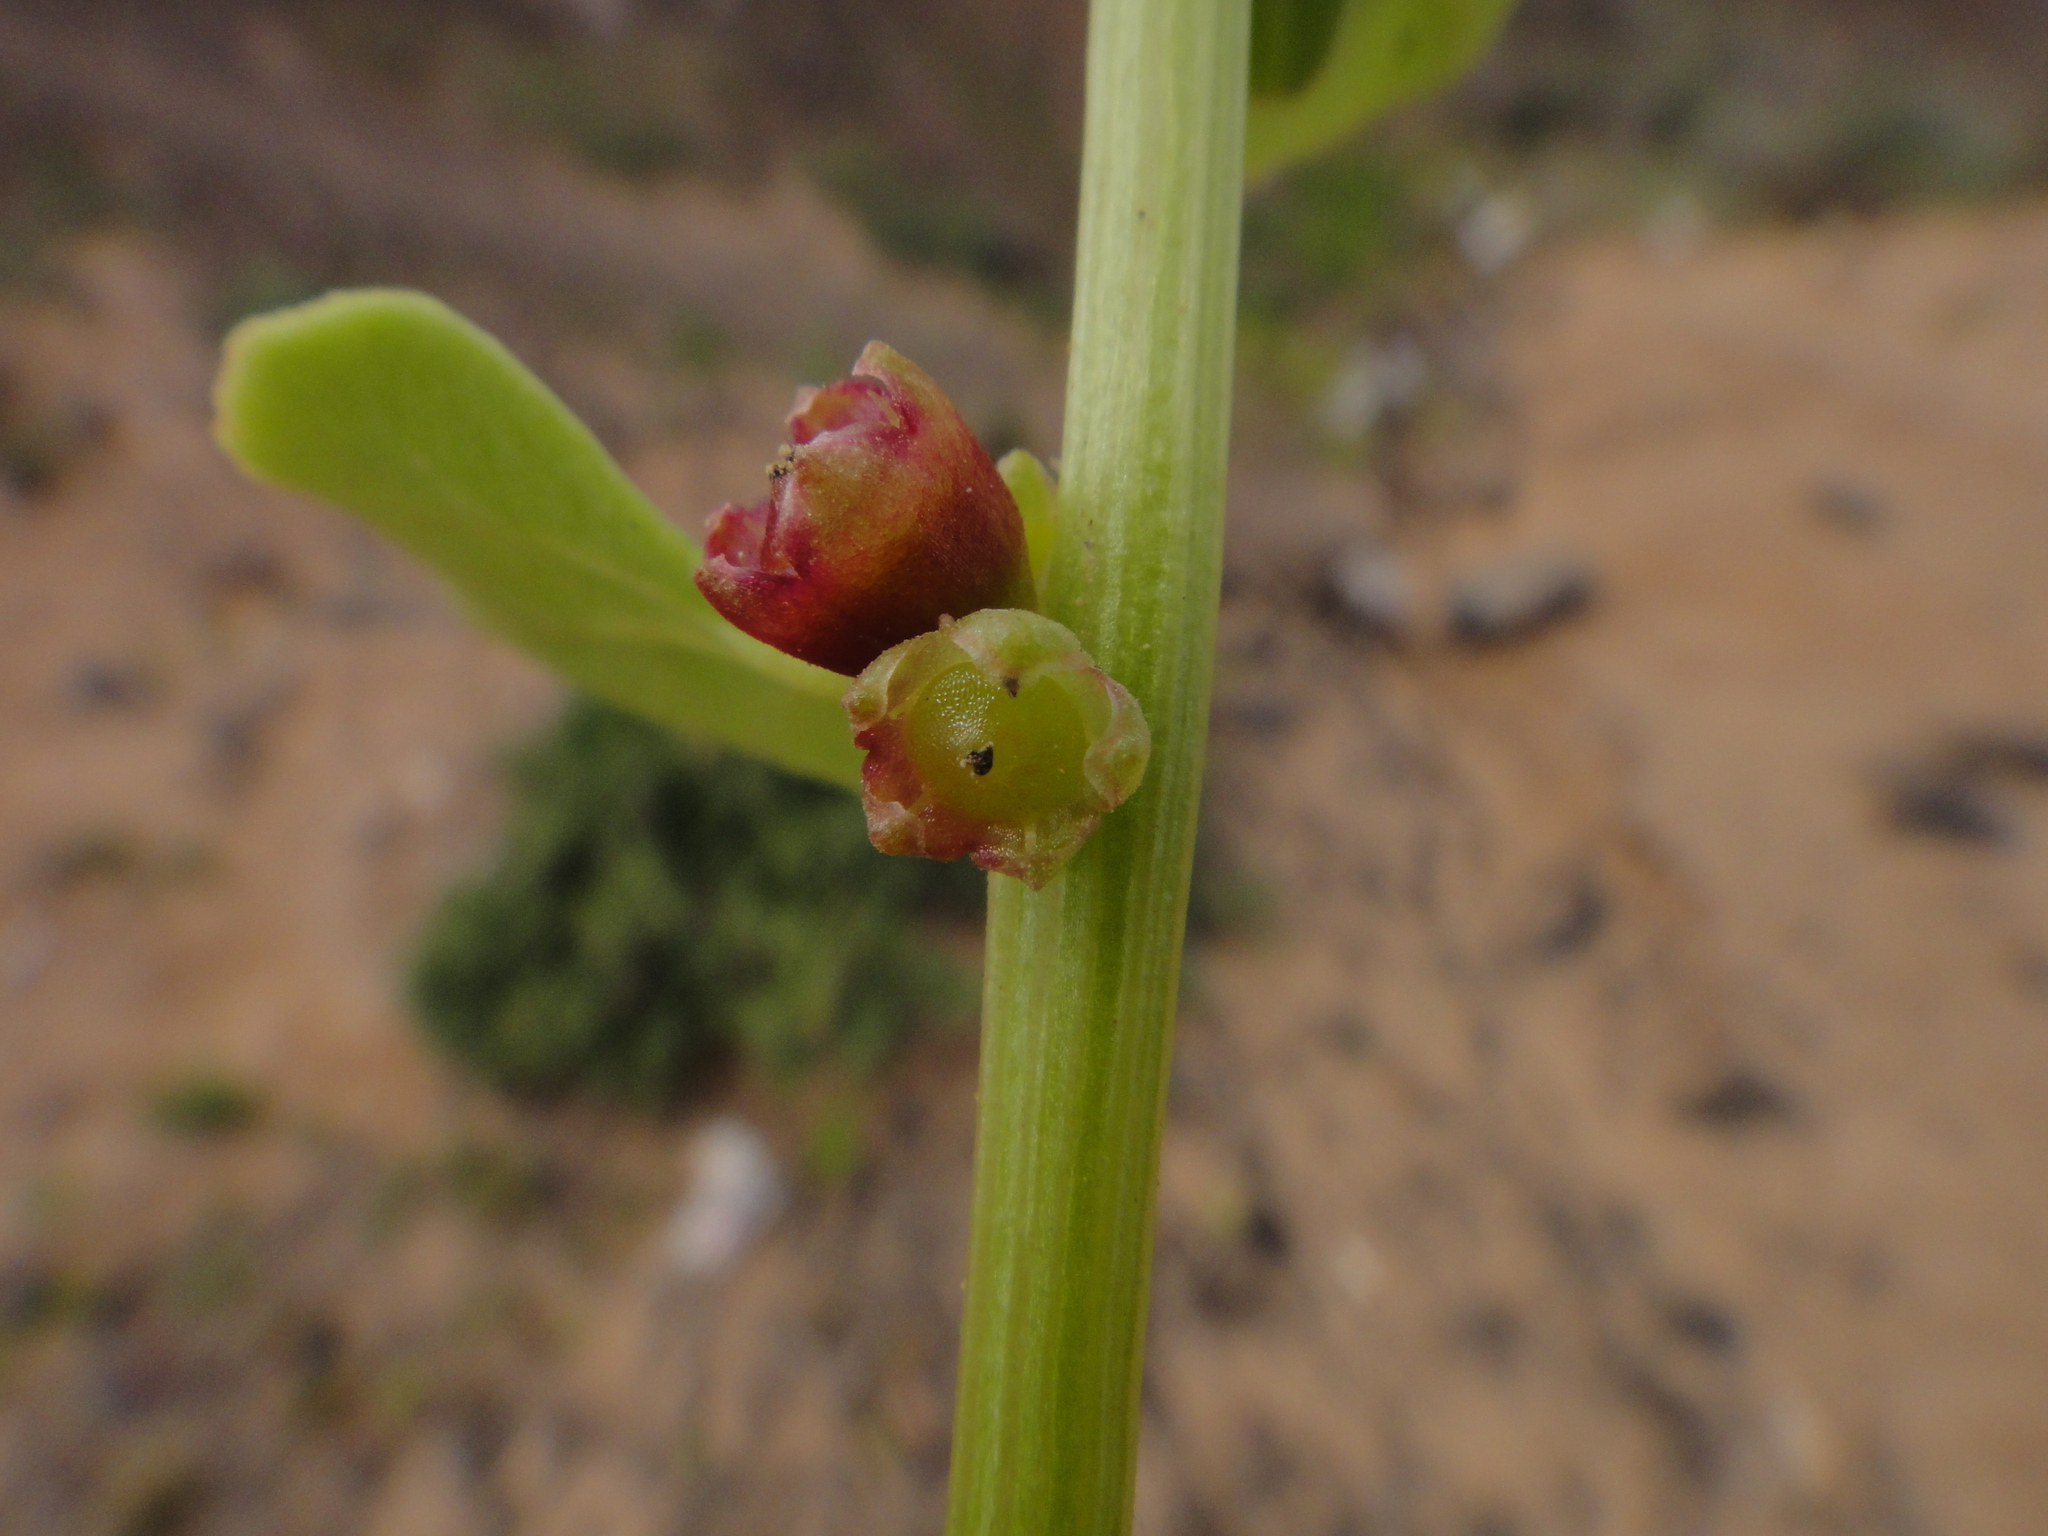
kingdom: Plantae
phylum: Tracheophyta
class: Magnoliopsida
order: Caryophyllales
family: Amaranthaceae
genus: Patellifolia
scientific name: Patellifolia procumbens
